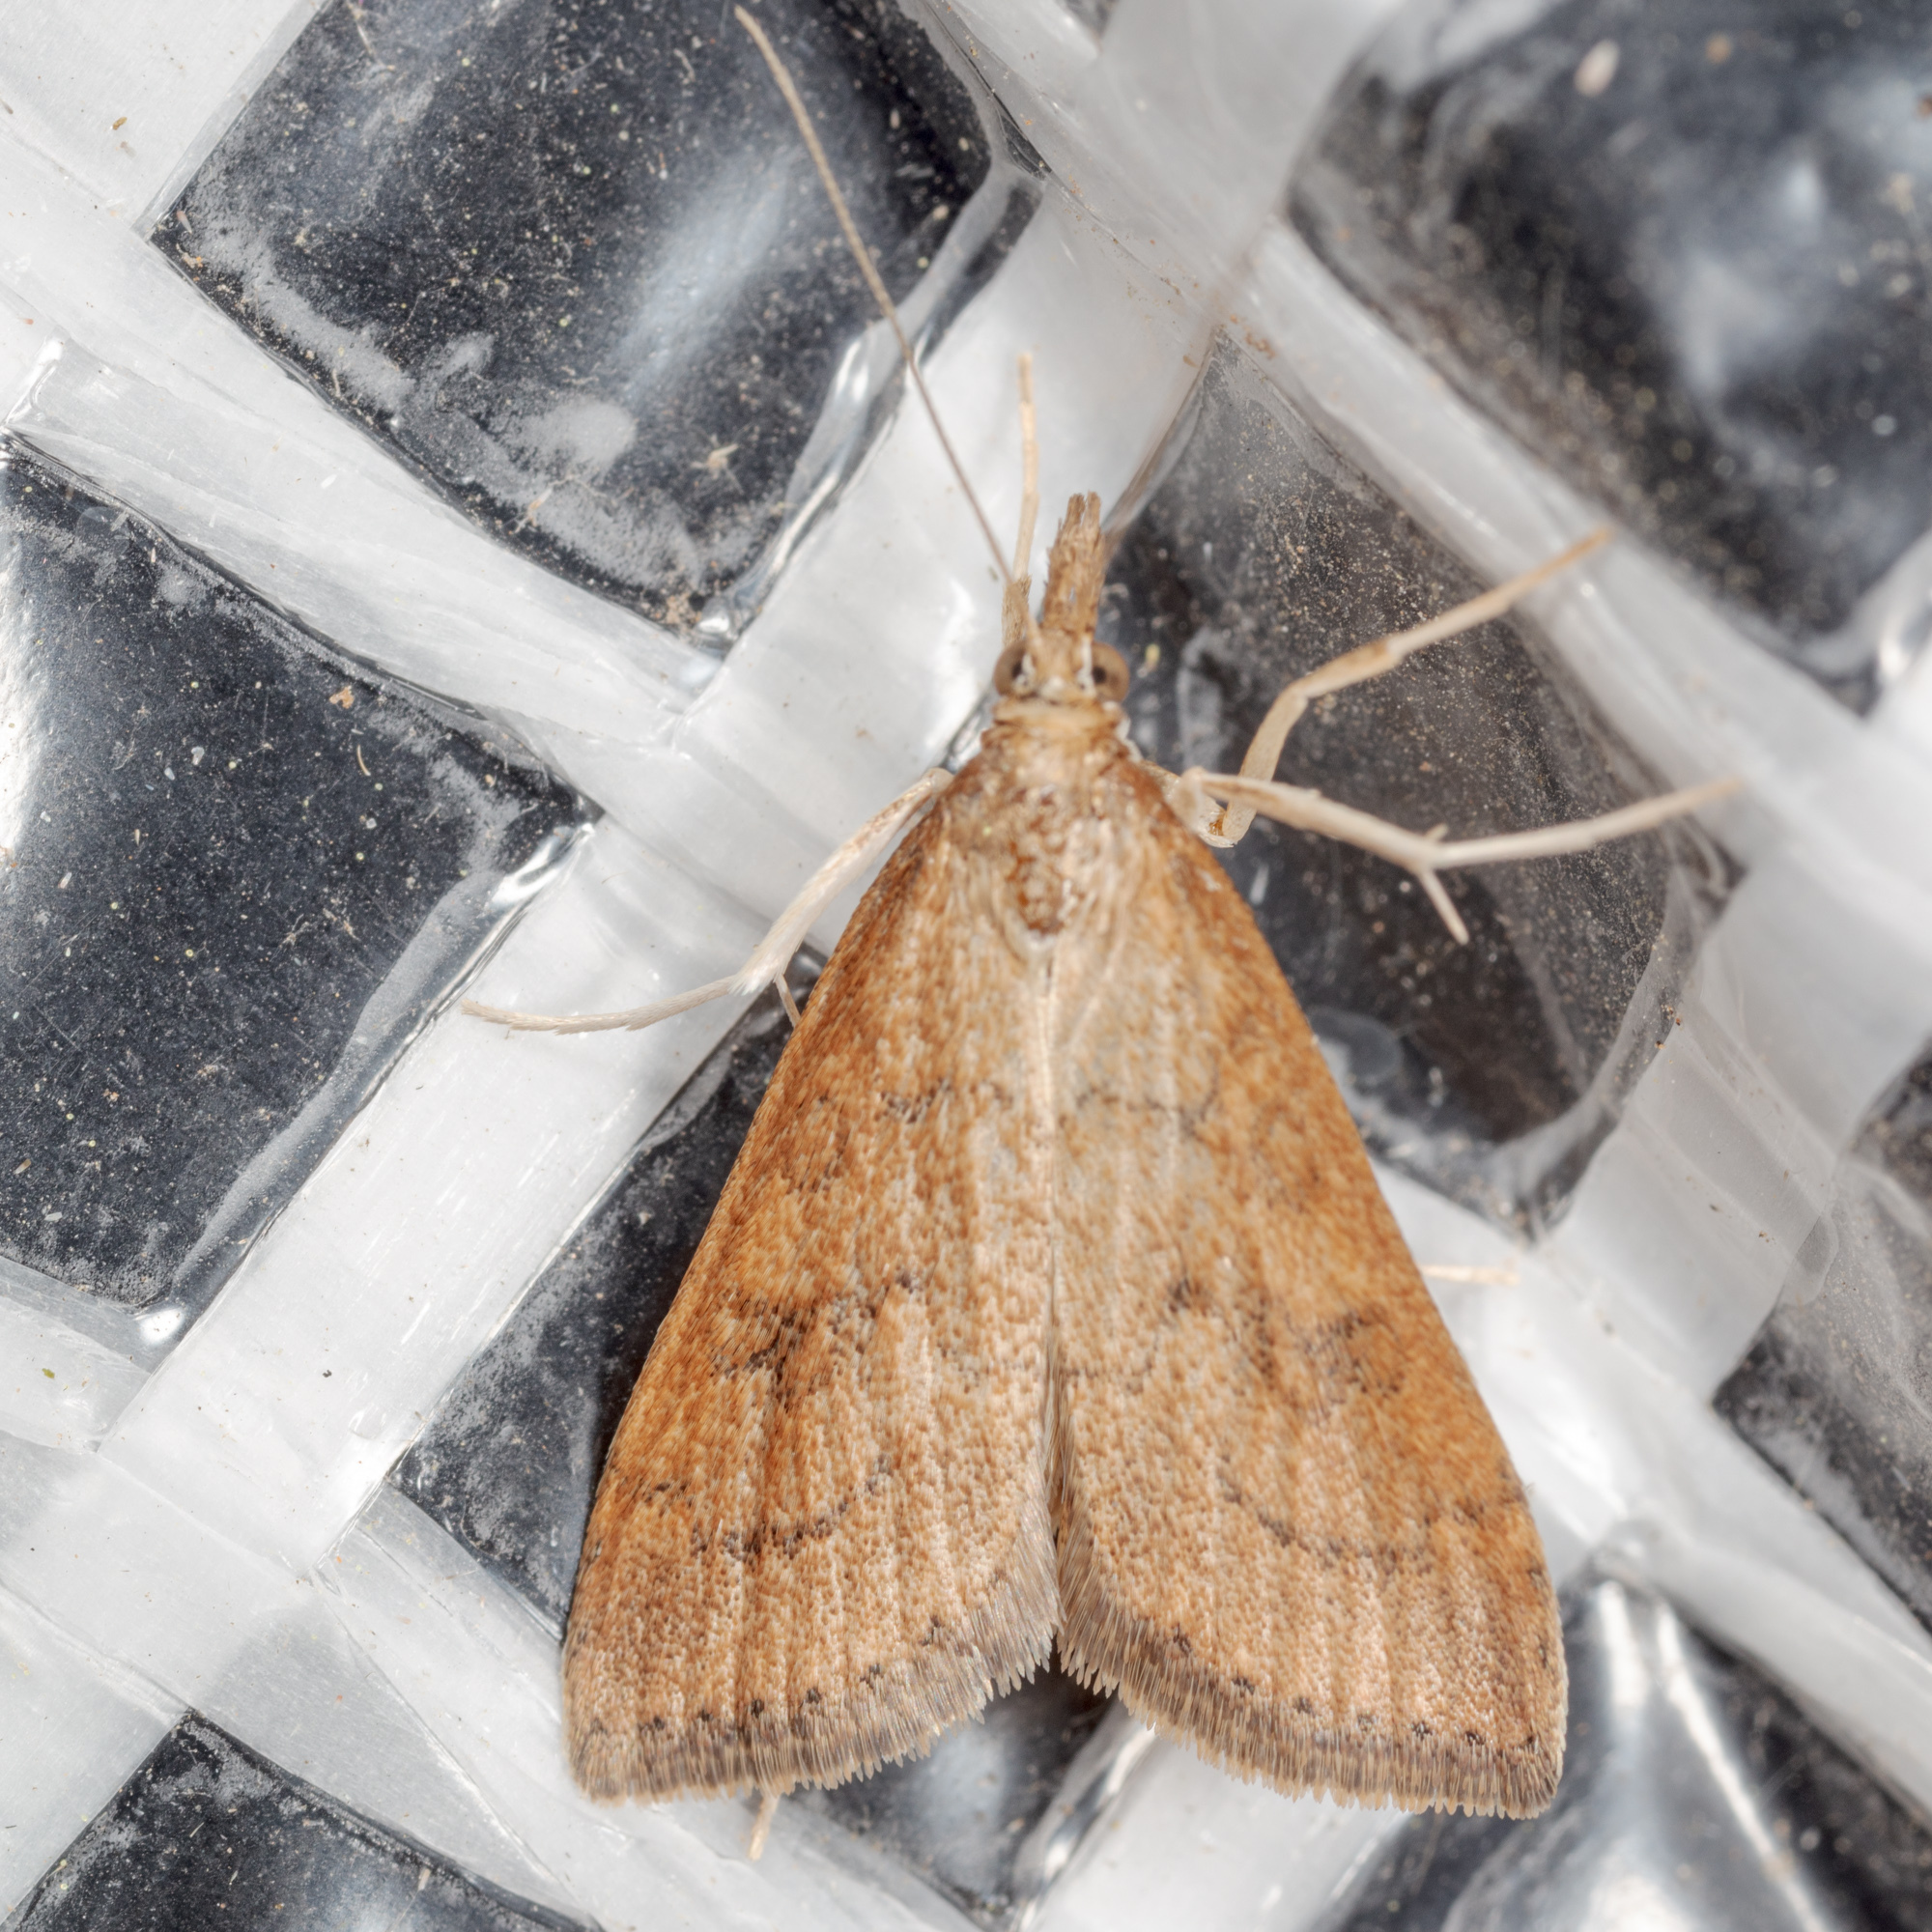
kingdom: Animalia
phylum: Arthropoda
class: Insecta
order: Lepidoptera
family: Crambidae
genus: Udea
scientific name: Udea rubigalis
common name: Celery leaftier moth
